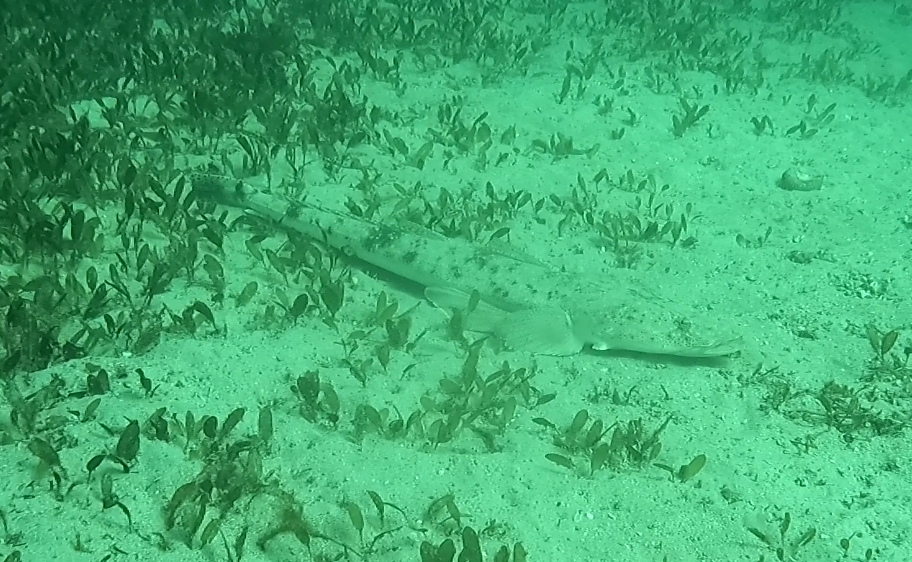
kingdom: Animalia
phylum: Chordata
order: Scorpaeniformes
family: Platycephalidae
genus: Platycephalus
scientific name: Platycephalus fuscus
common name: Dusky flathead
